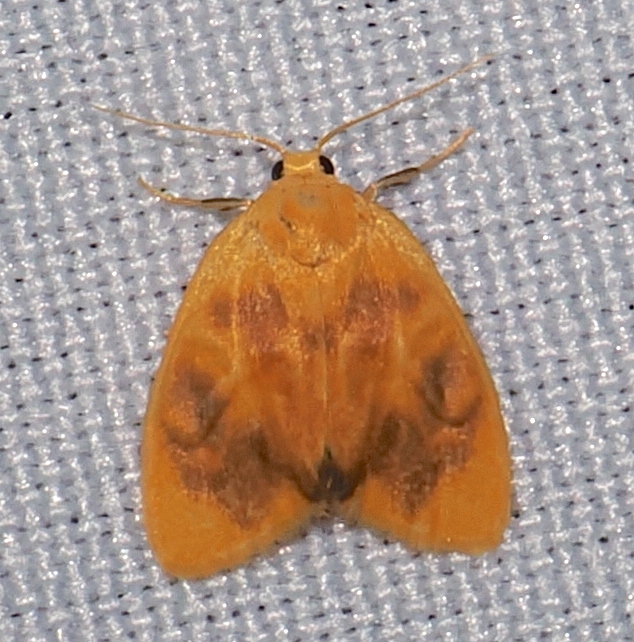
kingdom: Animalia
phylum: Arthropoda
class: Insecta
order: Lepidoptera
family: Erebidae
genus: Pronola
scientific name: Pronola perdiffusa
